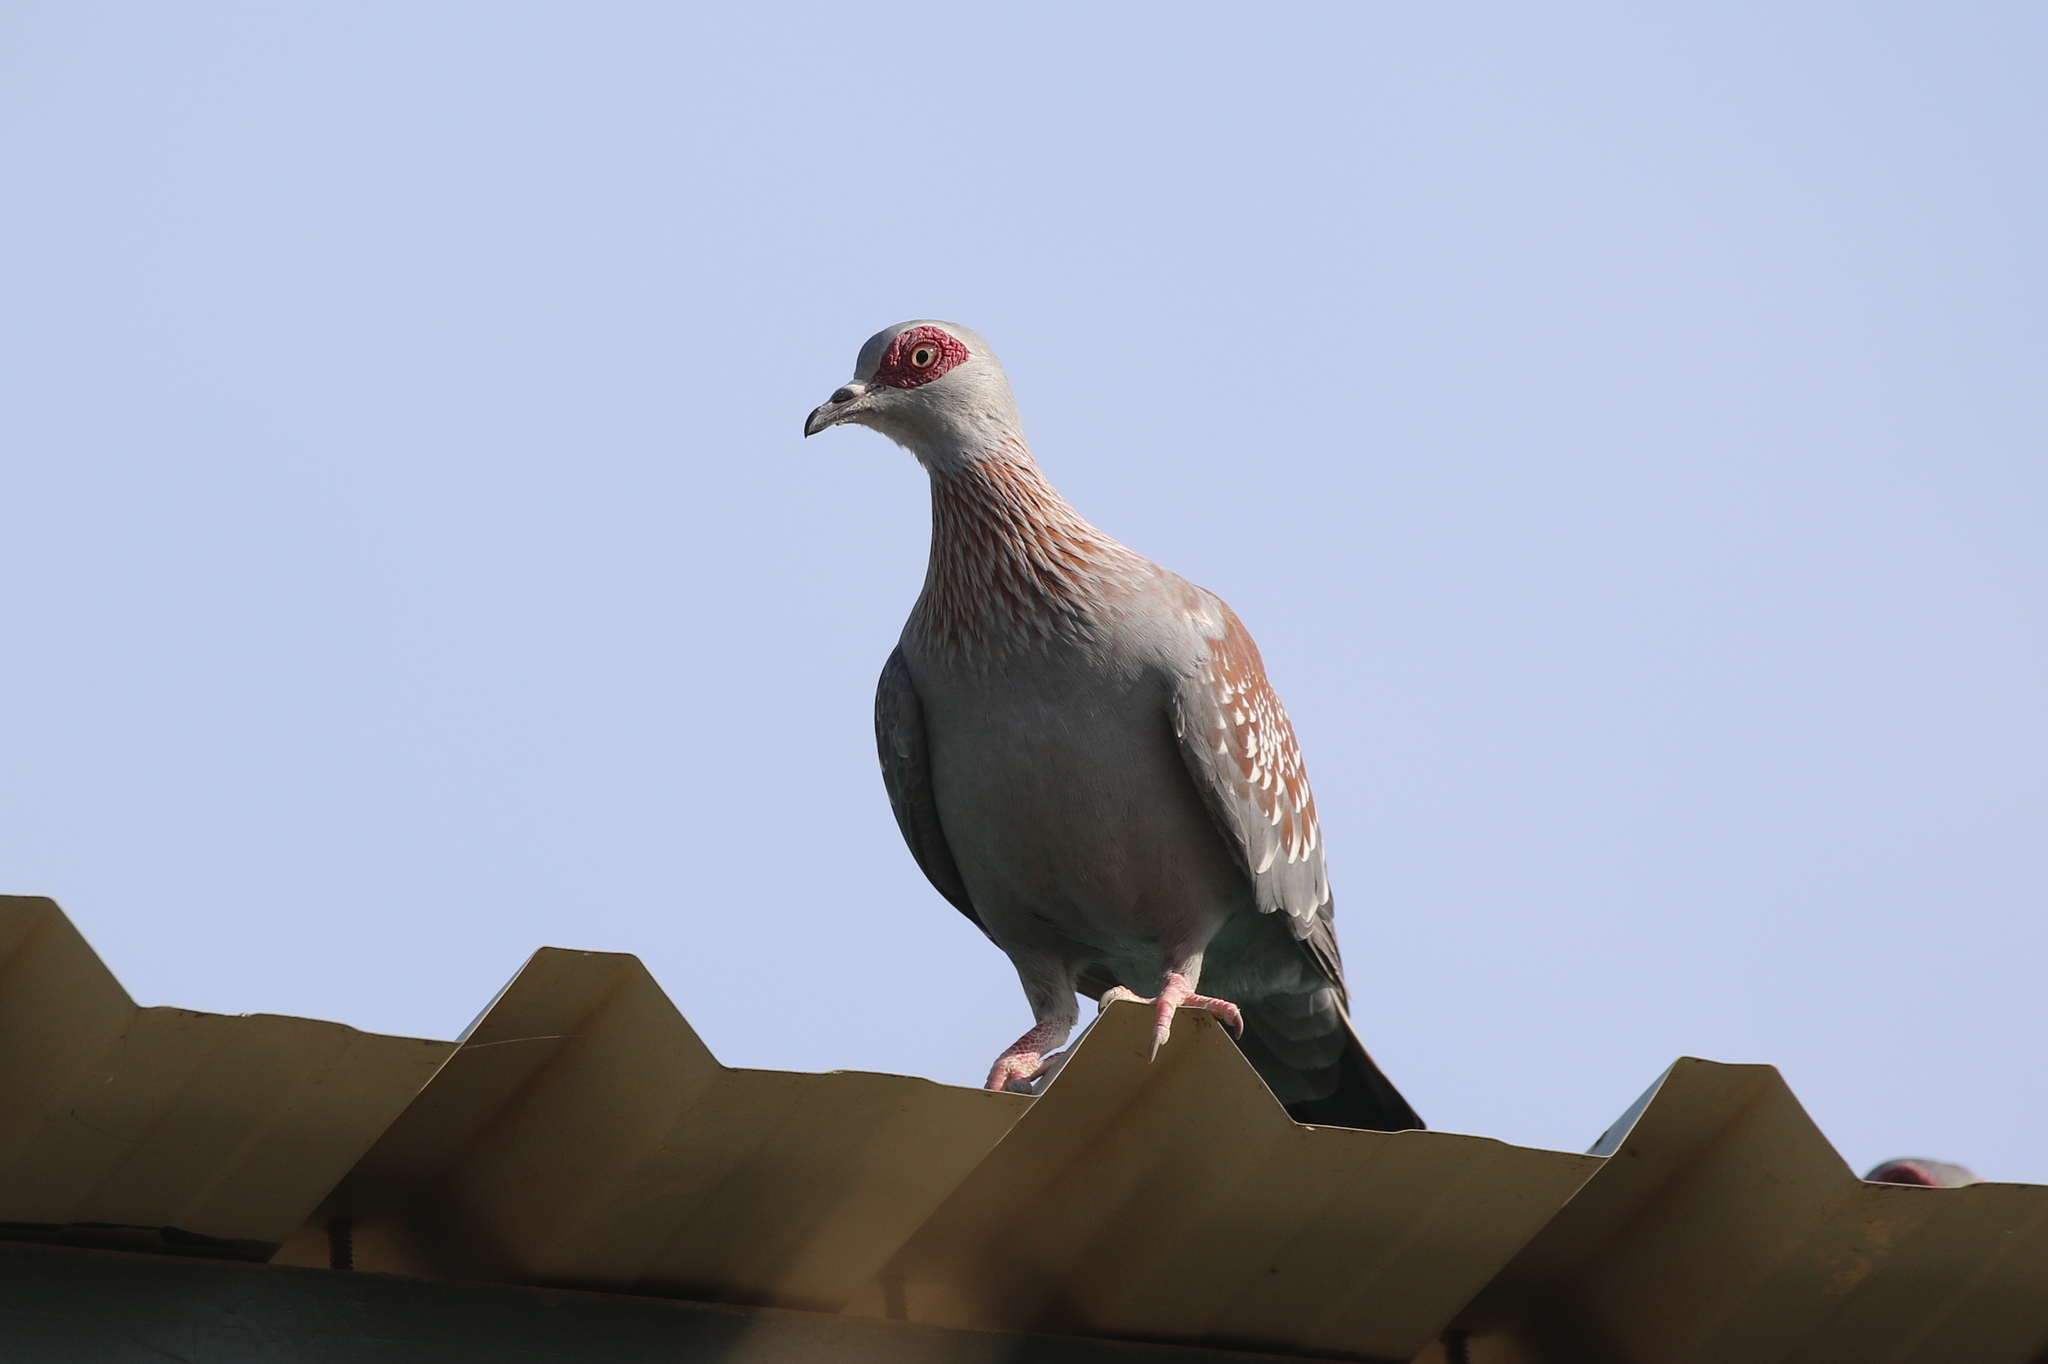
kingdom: Animalia
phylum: Chordata
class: Aves
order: Columbiformes
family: Columbidae
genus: Columba
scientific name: Columba guinea
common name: Speckled pigeon
